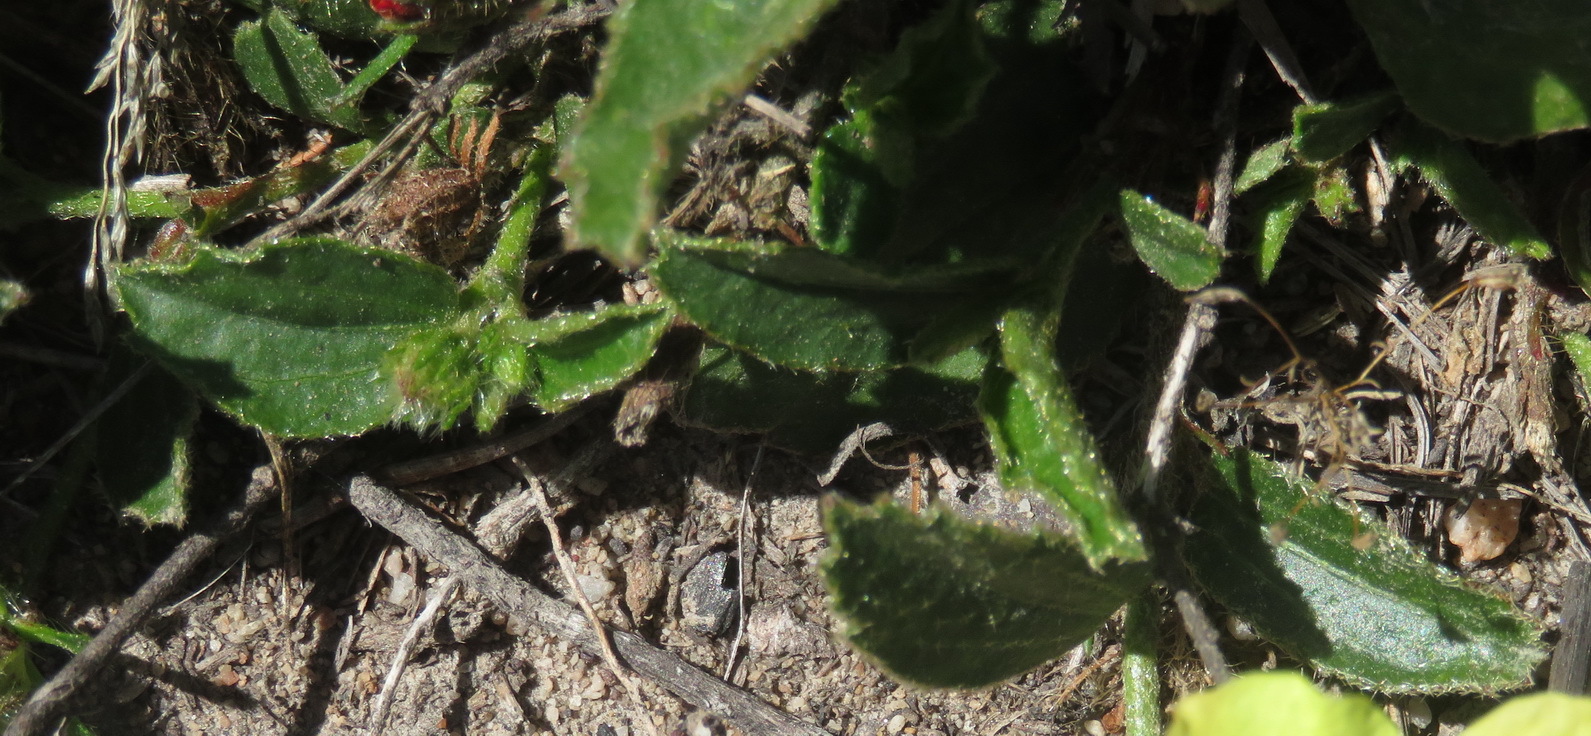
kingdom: Plantae
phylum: Tracheophyta
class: Magnoliopsida
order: Malvales
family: Malvaceae
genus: Hibiscus
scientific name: Hibiscus aethiopicus
